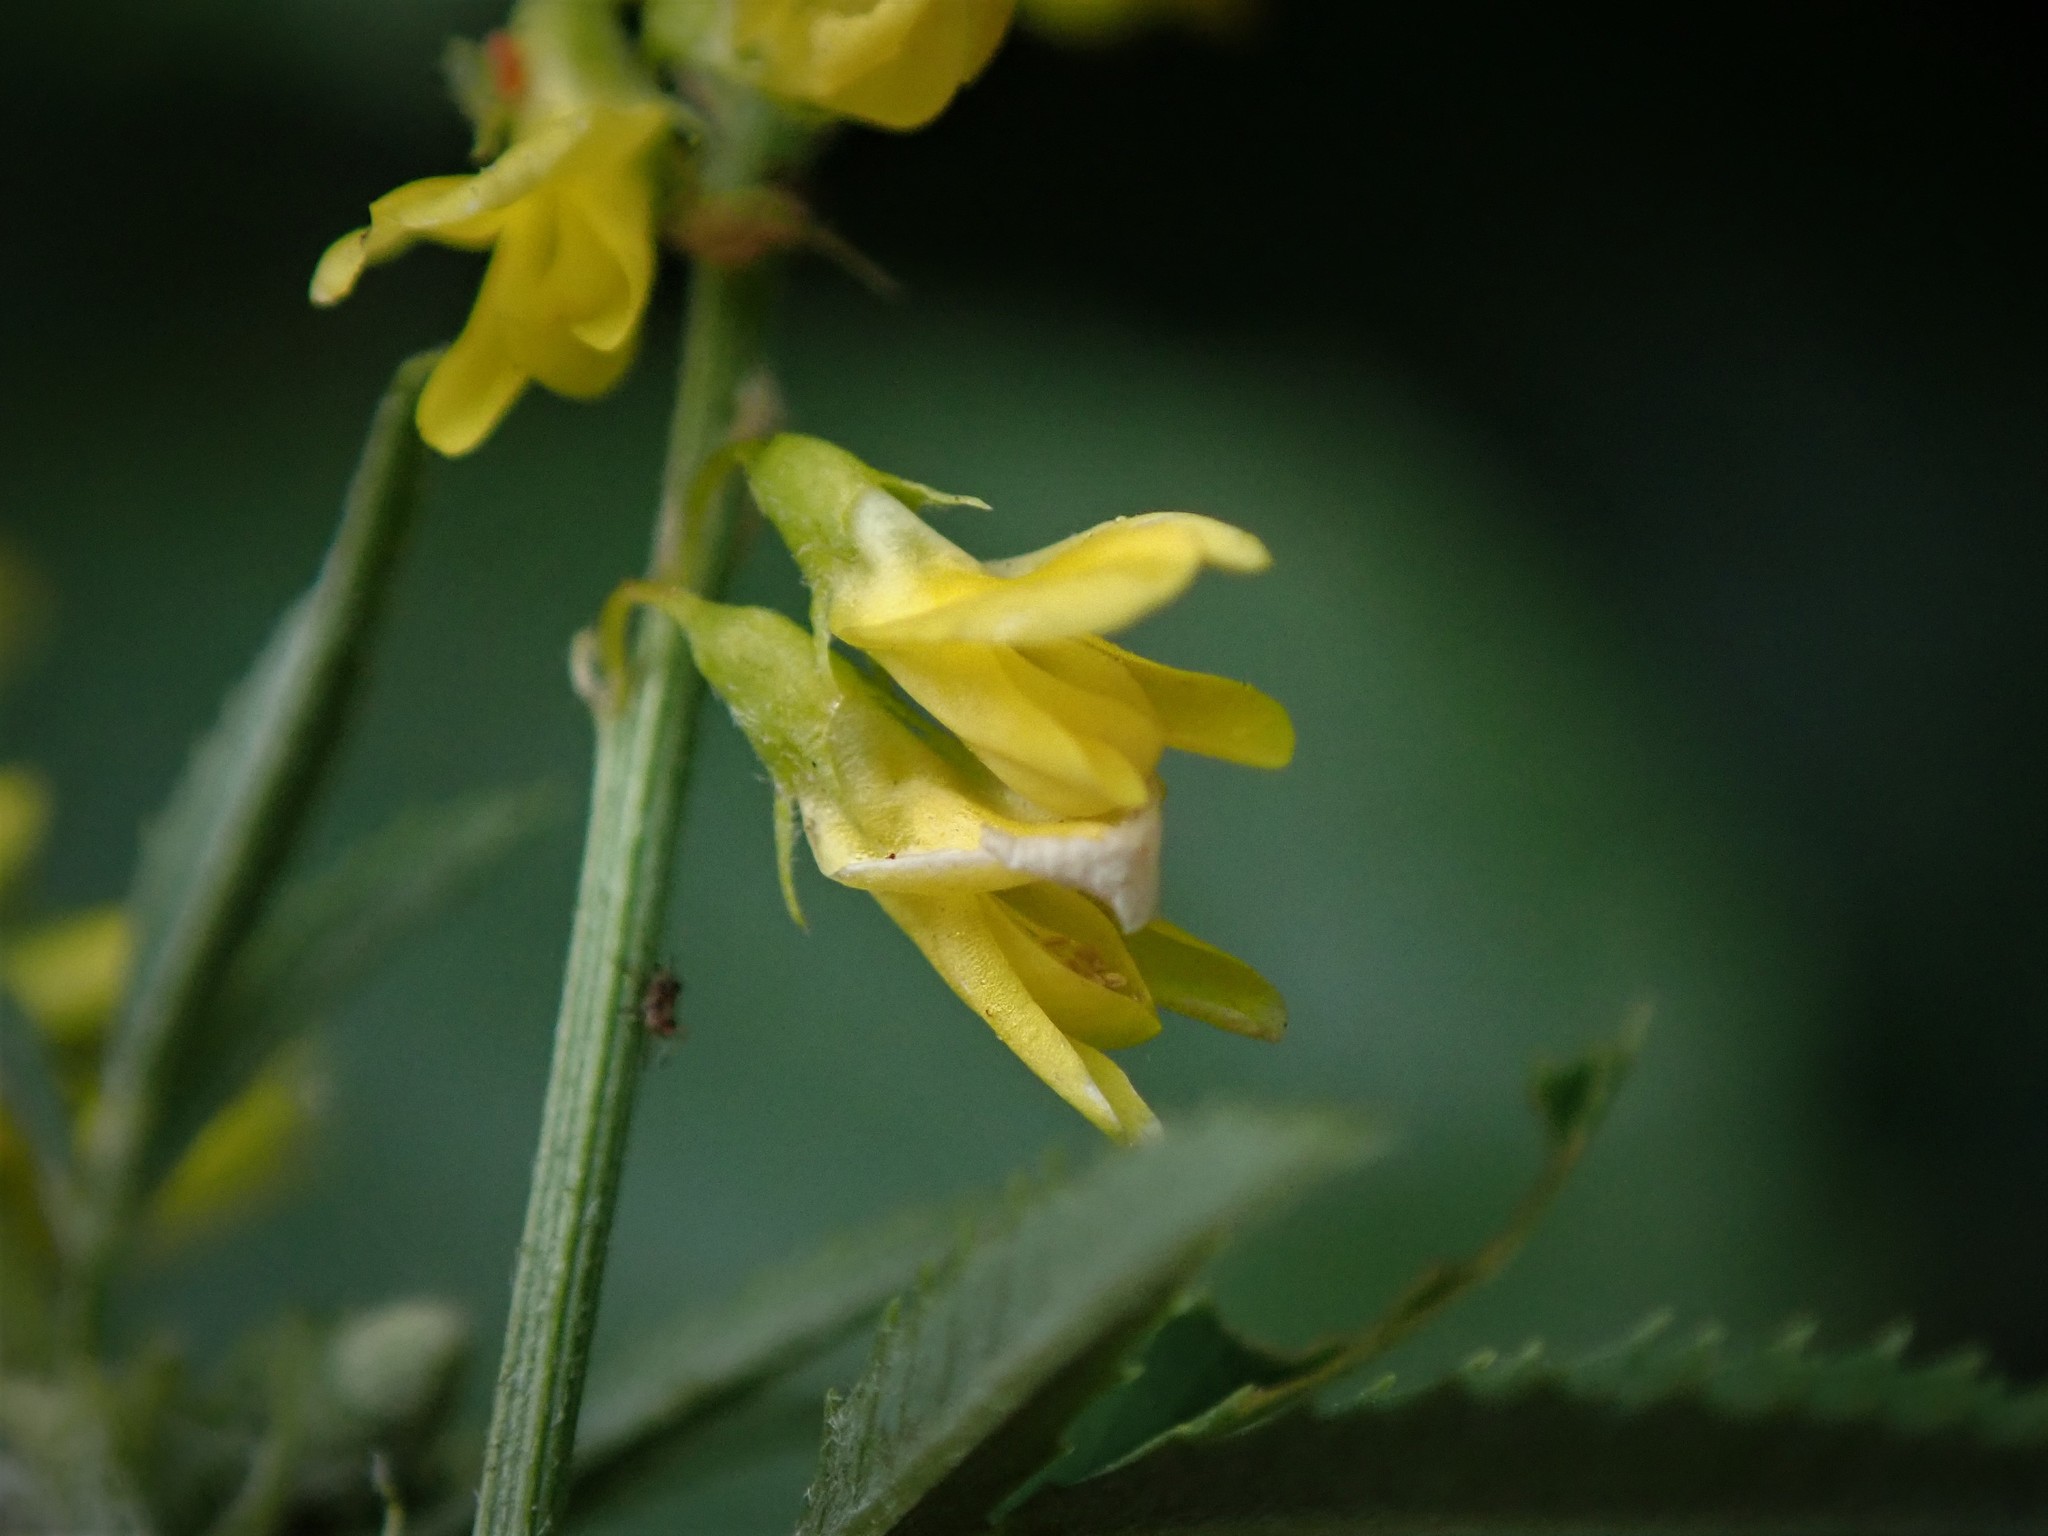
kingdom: Plantae
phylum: Tracheophyta
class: Magnoliopsida
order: Fabales
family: Fabaceae
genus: Melilotus
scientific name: Melilotus officinalis
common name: Sweetclover
